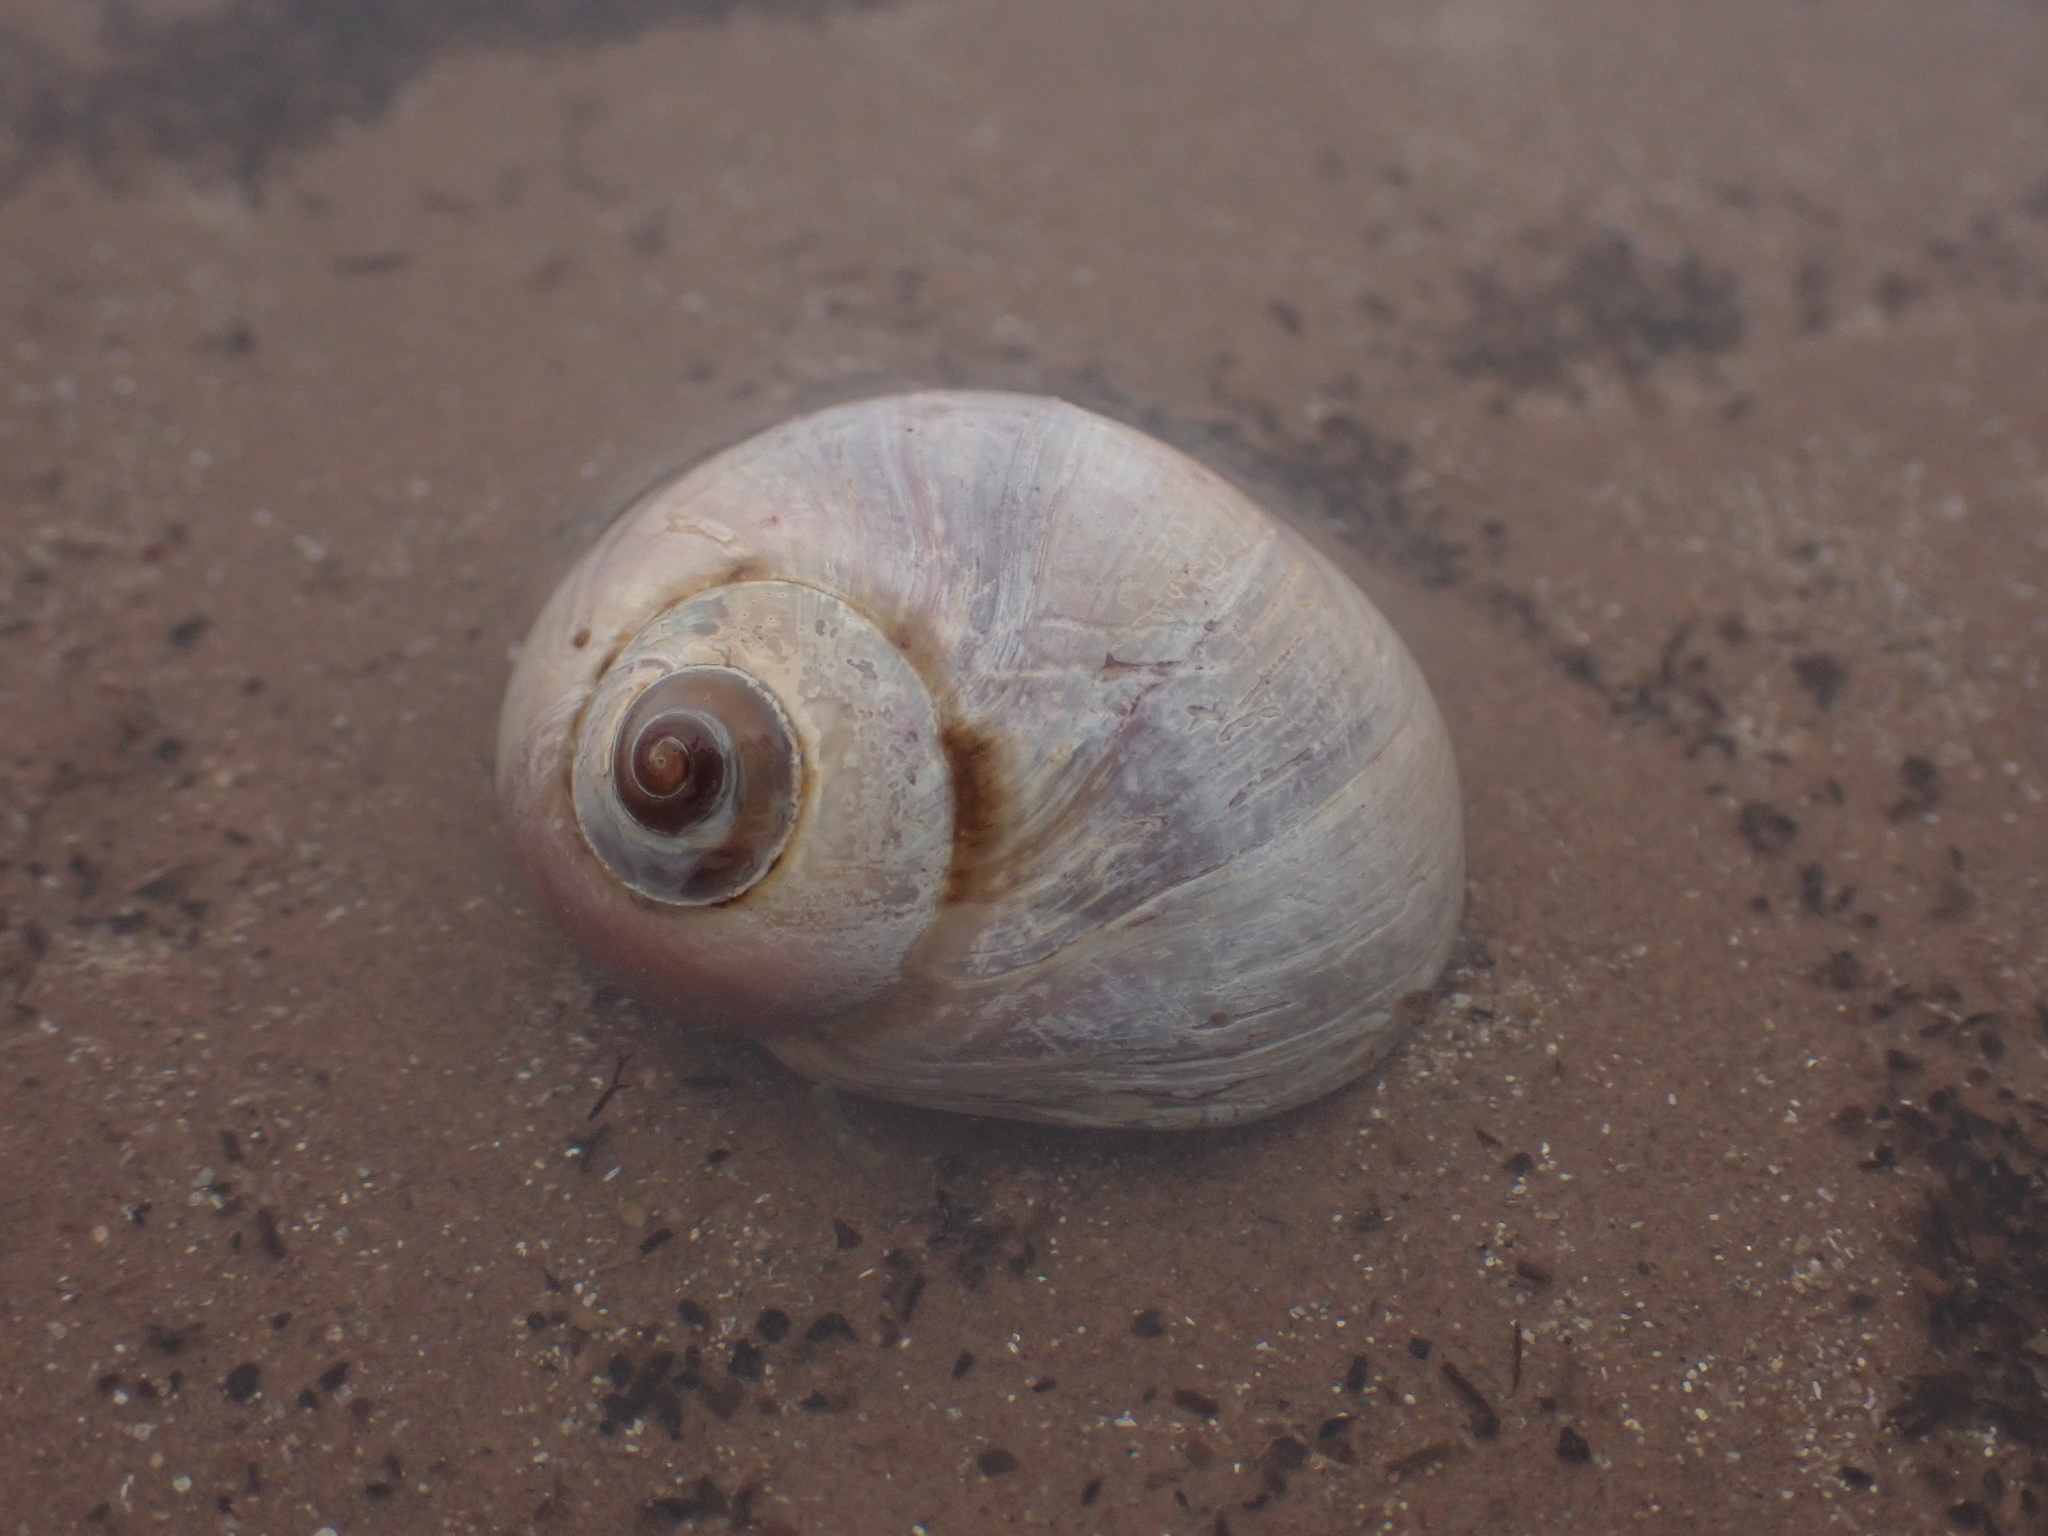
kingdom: Animalia
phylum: Mollusca
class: Gastropoda
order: Littorinimorpha
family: Naticidae
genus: Euspira
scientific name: Euspira heros
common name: Common northern moonsnail
